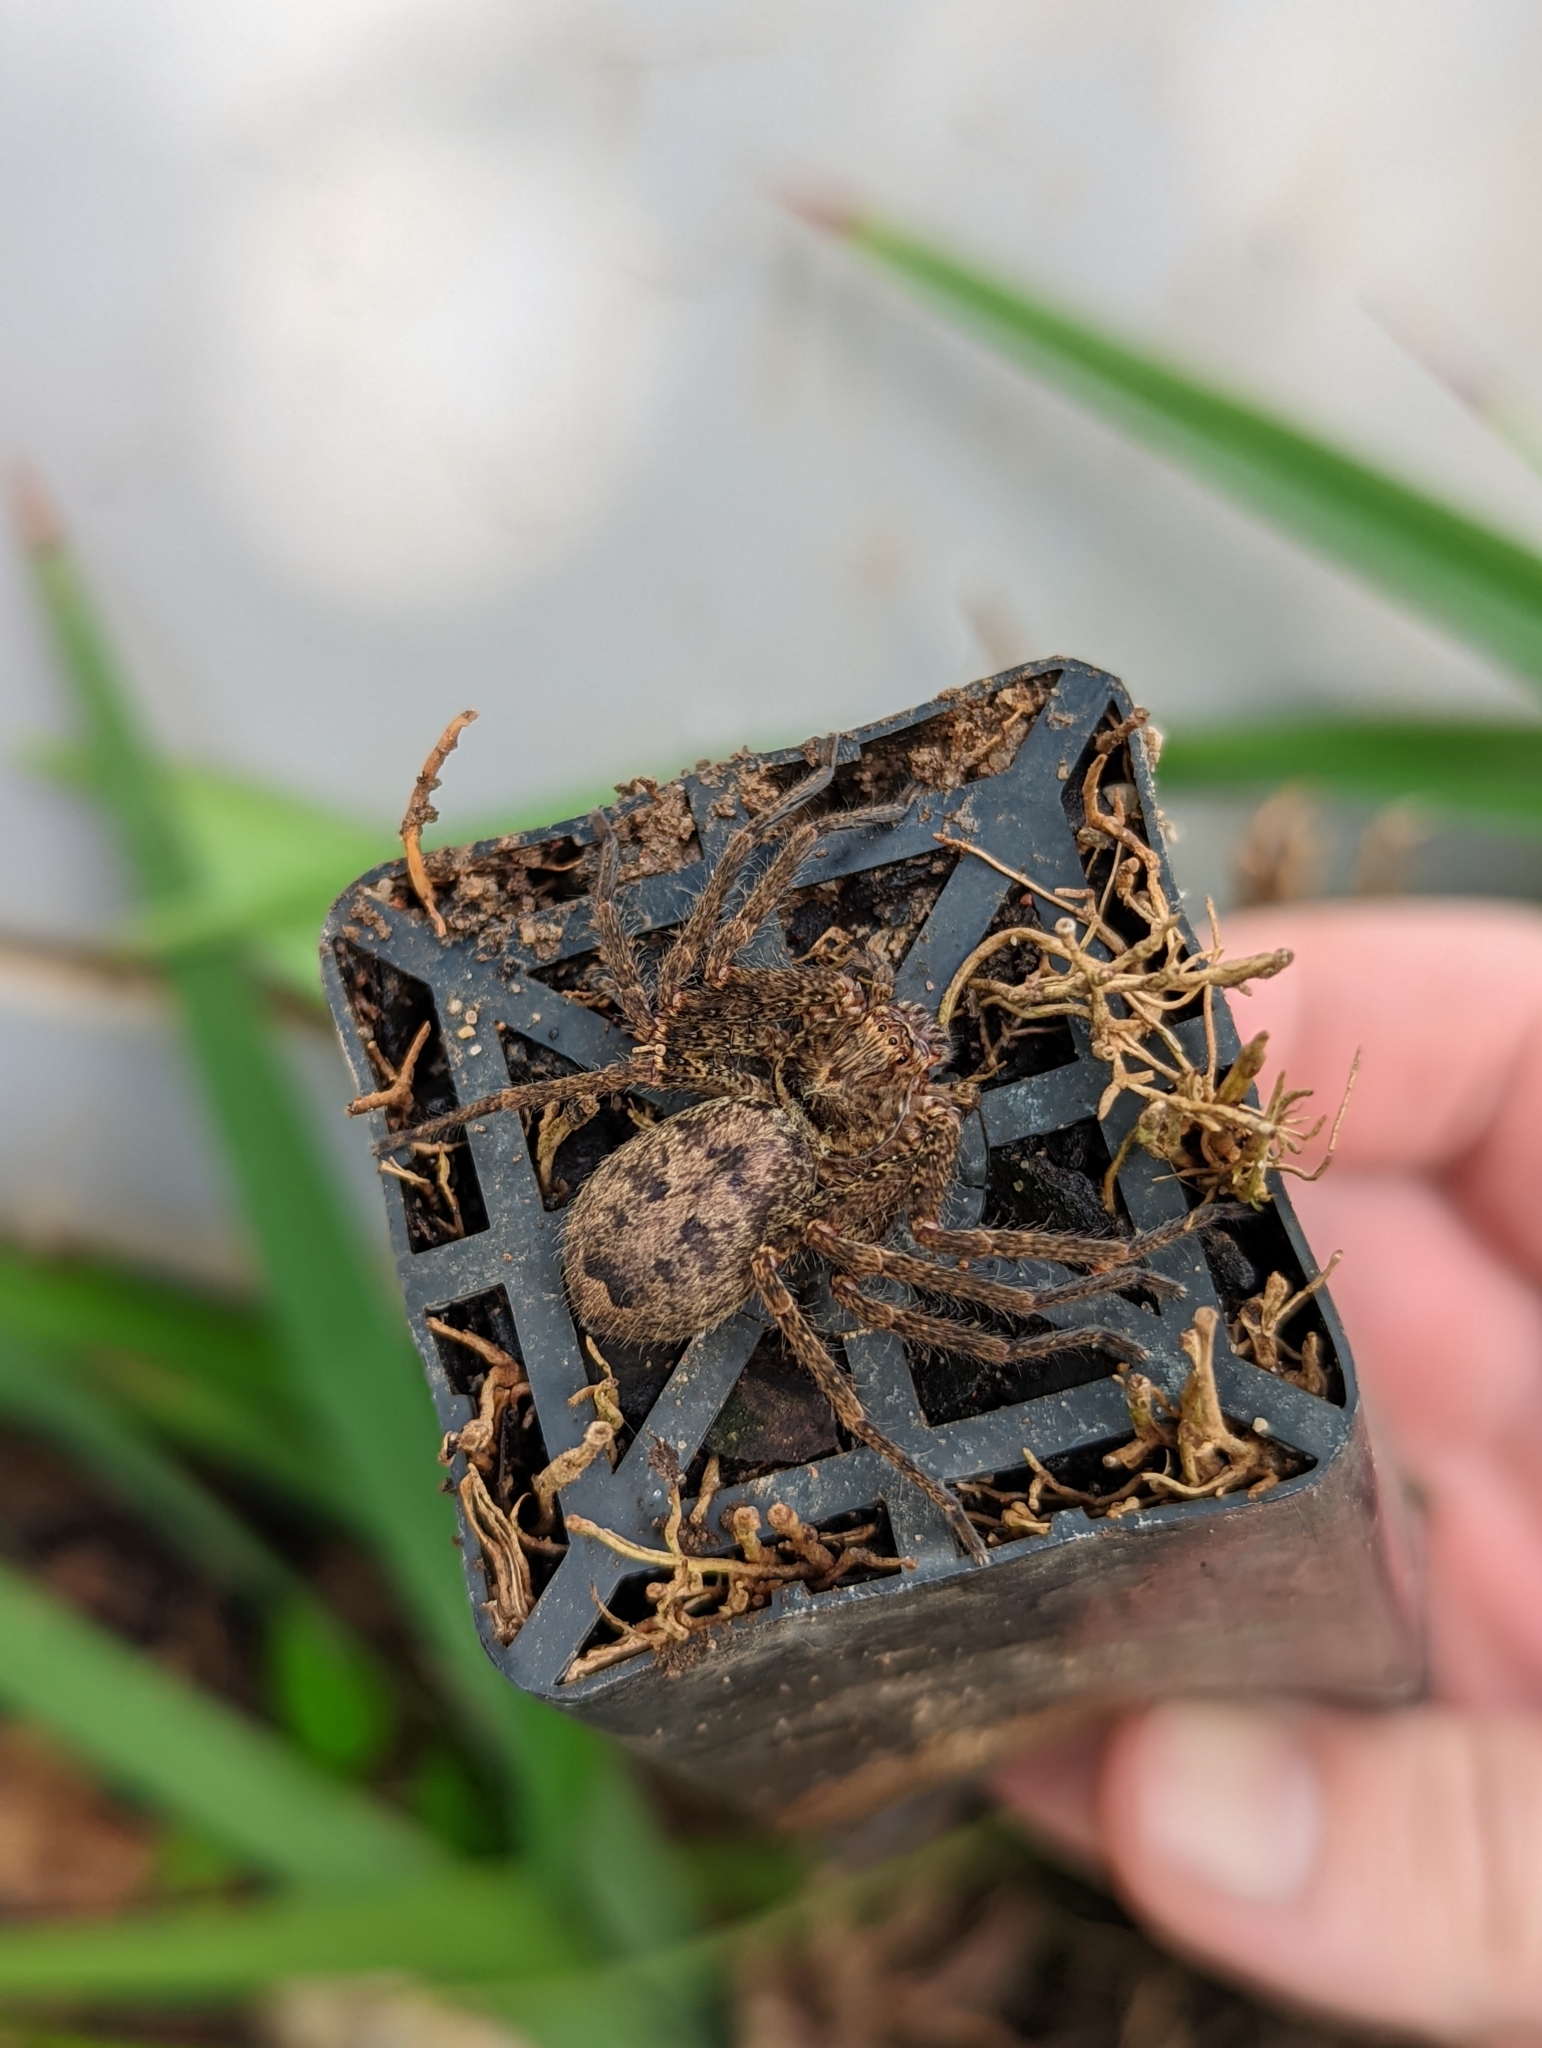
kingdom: Animalia
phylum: Arthropoda
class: Arachnida
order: Araneae
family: Sparassidae
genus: Heteropoda
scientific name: Heteropoda jugulans
